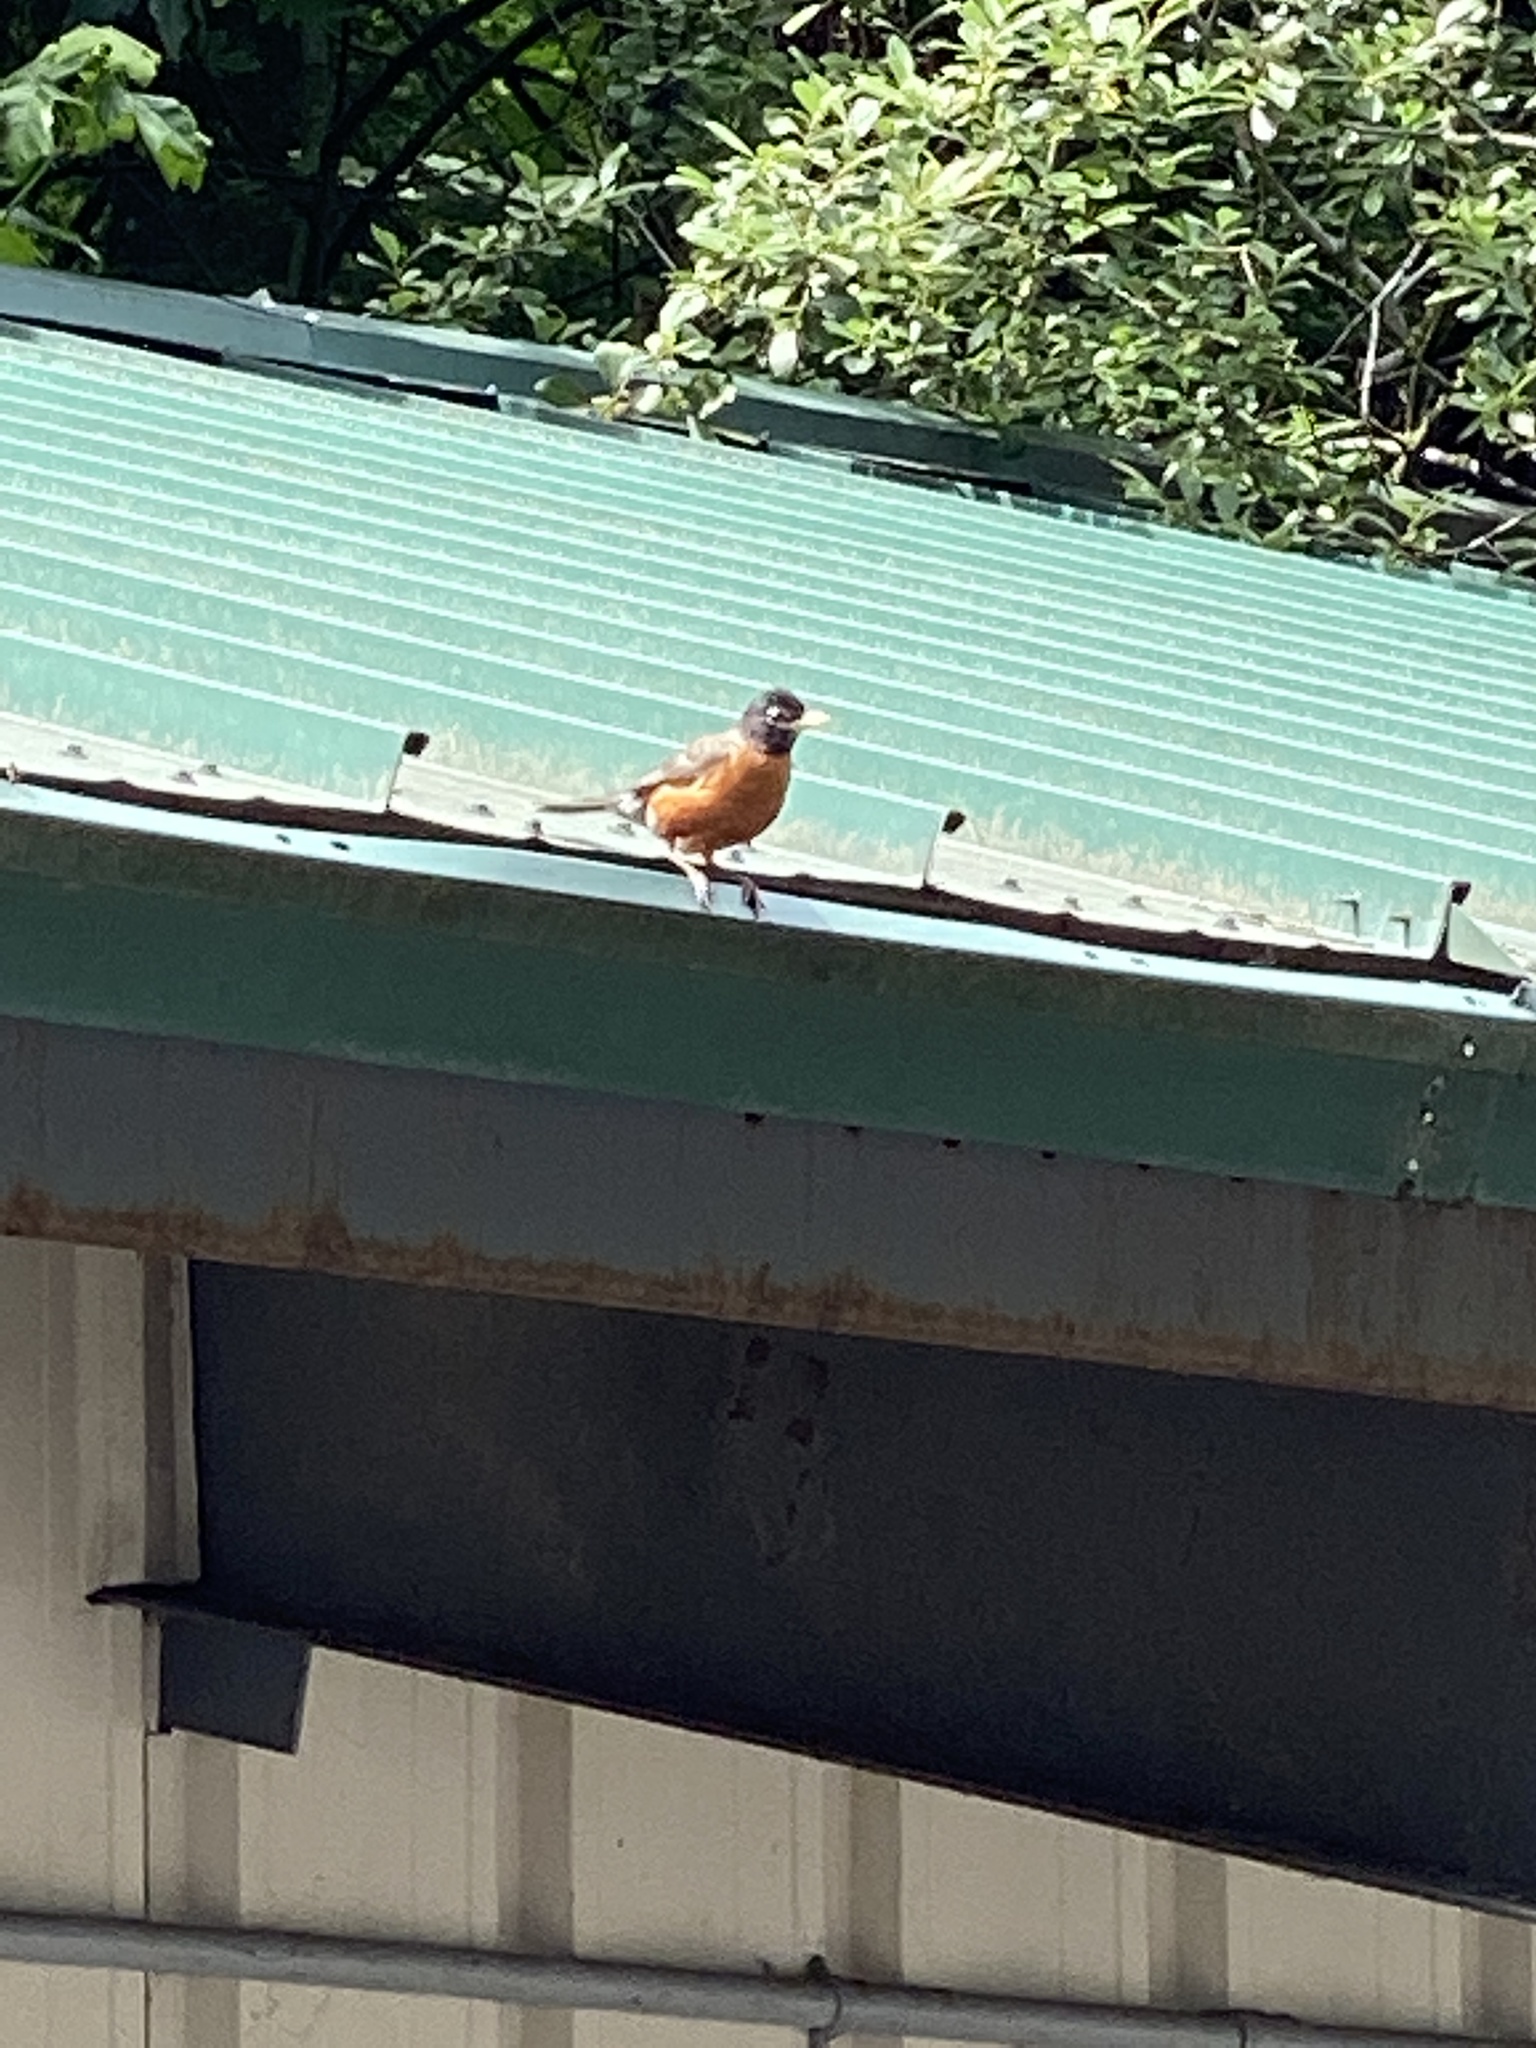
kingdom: Animalia
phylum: Chordata
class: Aves
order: Passeriformes
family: Turdidae
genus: Turdus
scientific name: Turdus migratorius
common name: American robin
